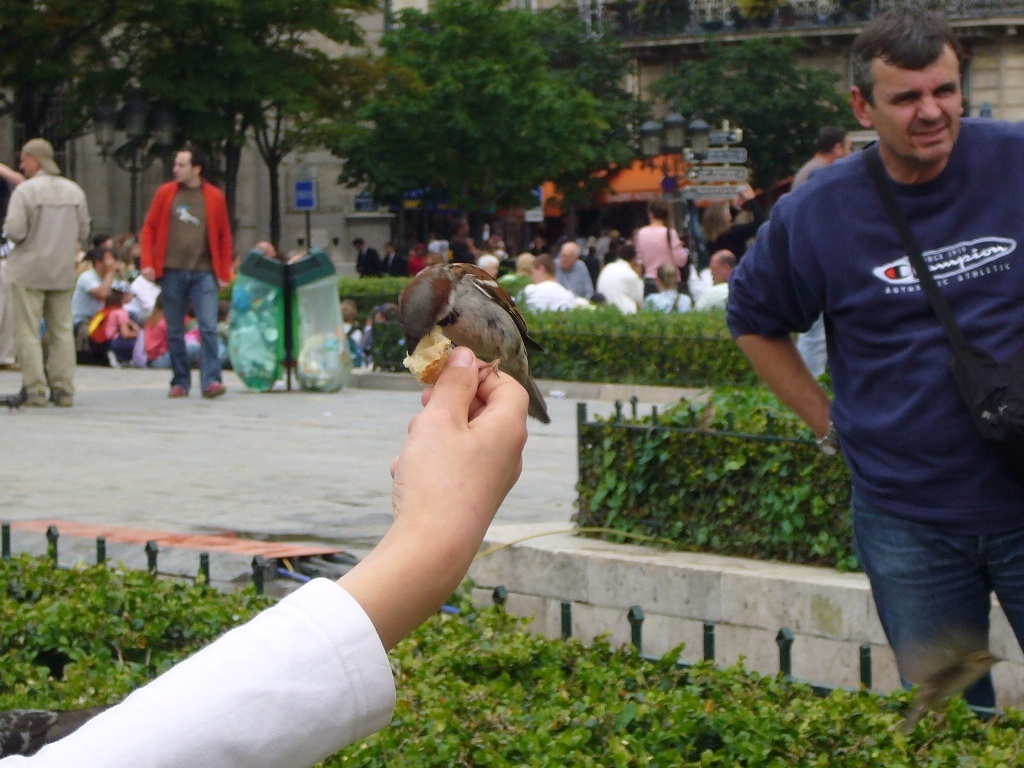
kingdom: Animalia
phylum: Chordata
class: Aves
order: Passeriformes
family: Passeridae
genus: Passer
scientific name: Passer domesticus
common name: House sparrow
